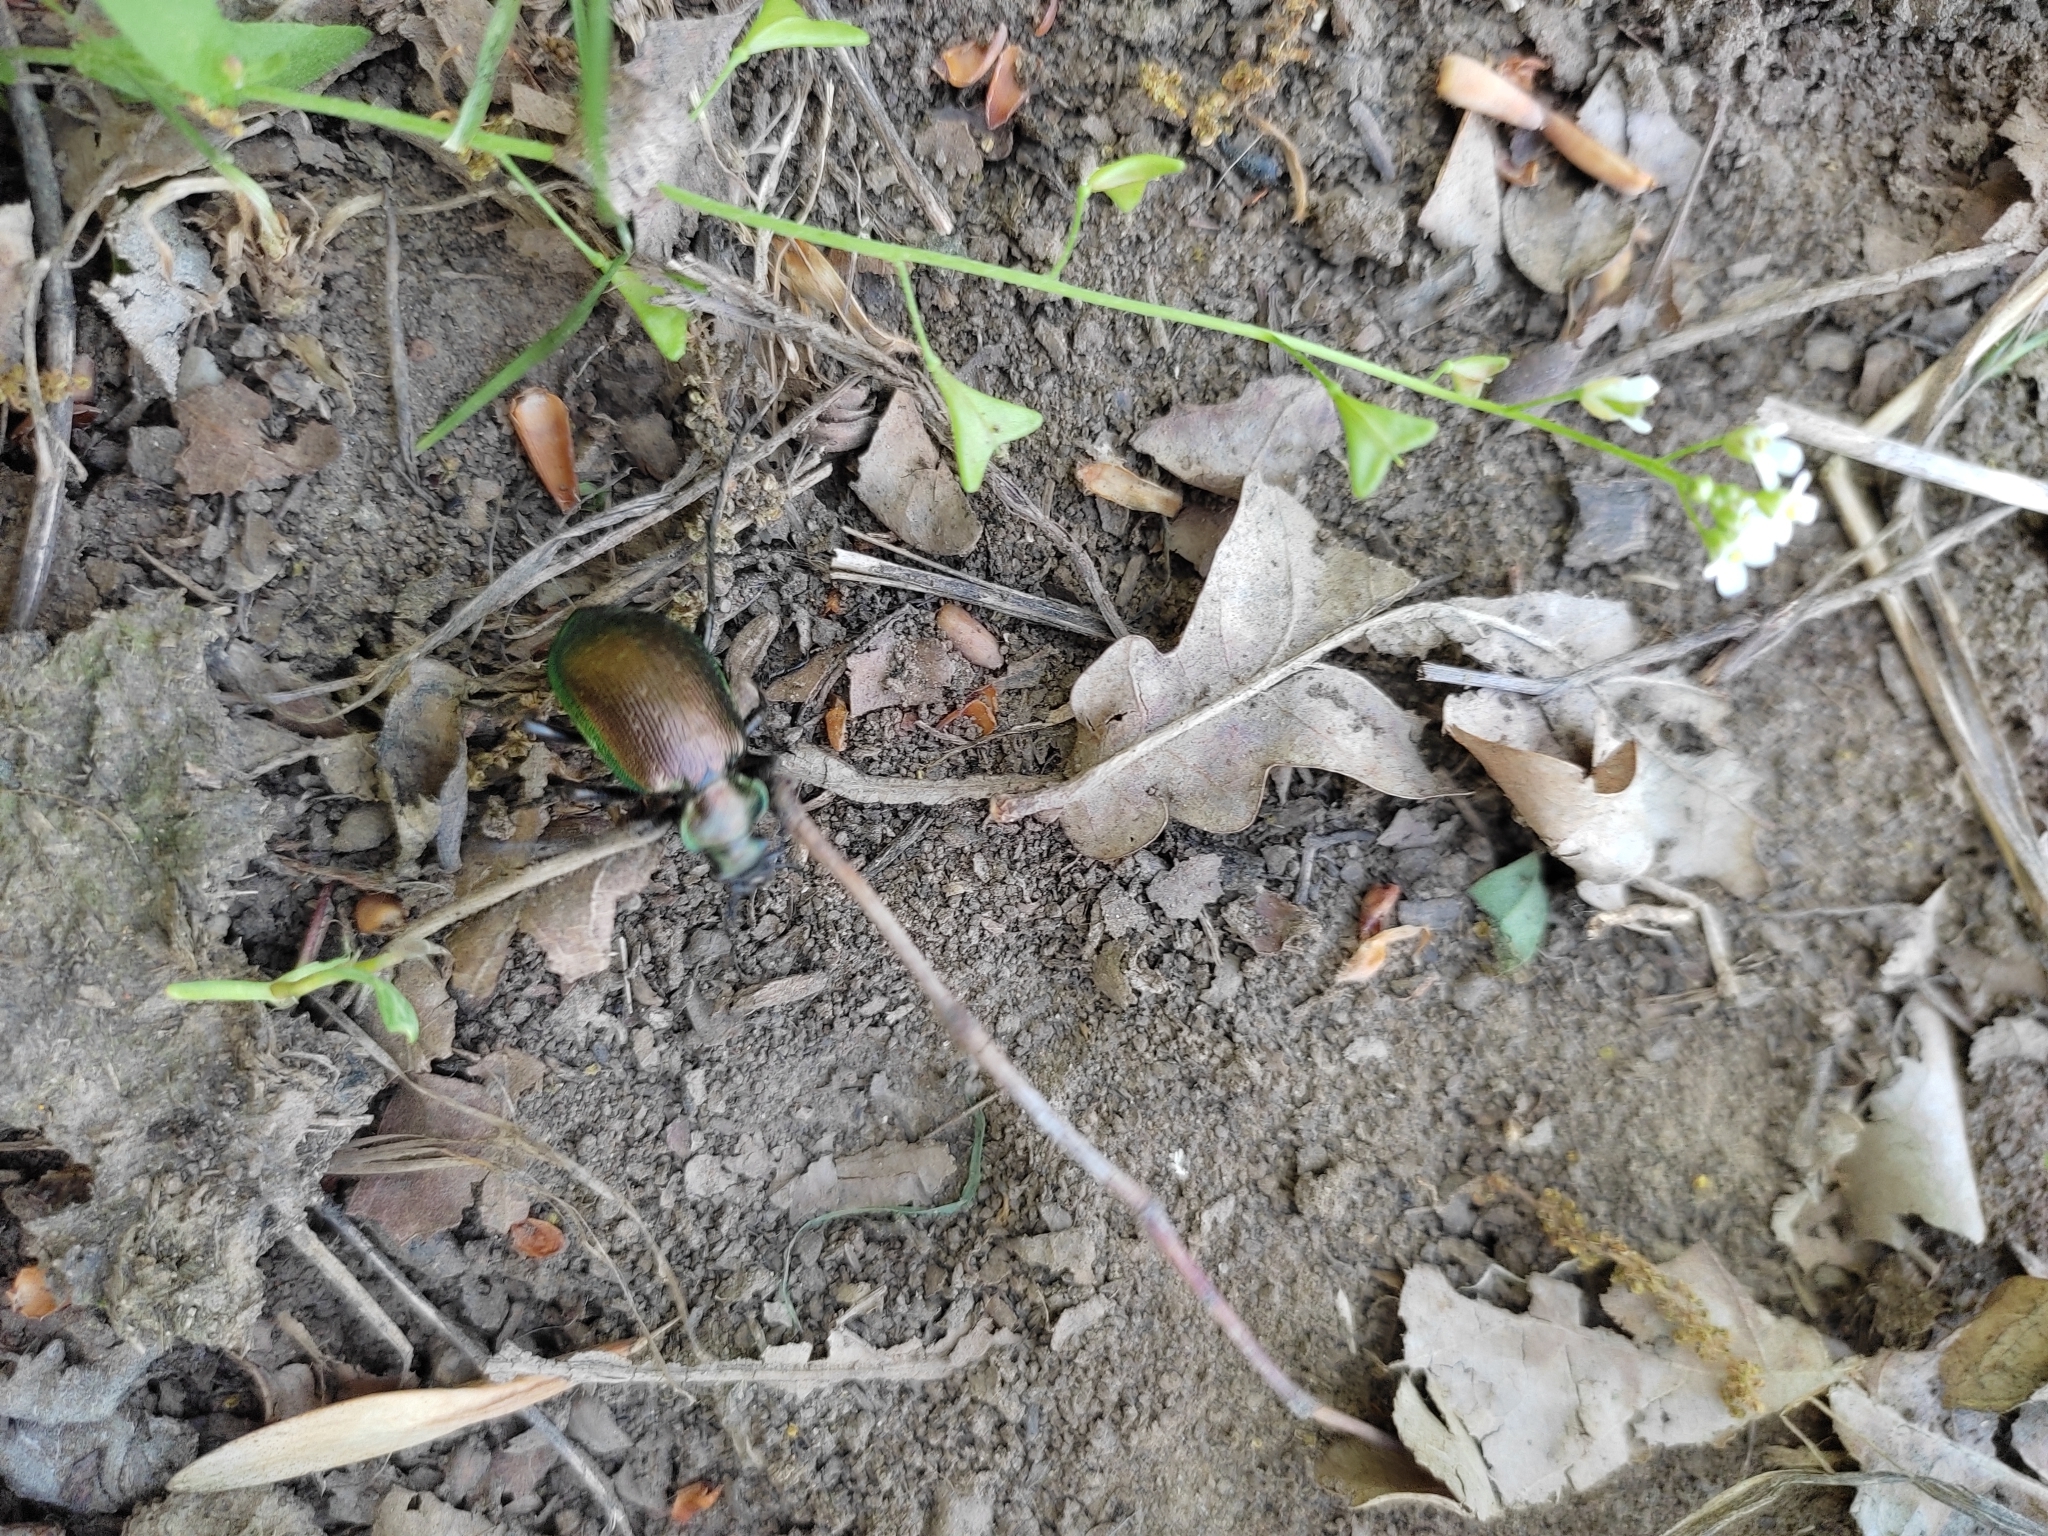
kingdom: Animalia
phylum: Arthropoda
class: Insecta
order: Coleoptera
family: Carabidae
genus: Calosoma
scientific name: Calosoma inquisitor
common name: Caterpillar-hunter
